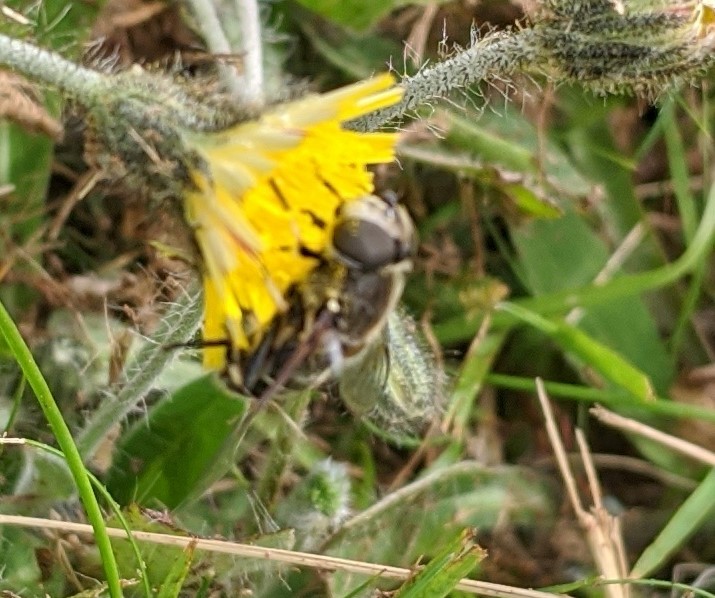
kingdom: Animalia
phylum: Arthropoda
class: Insecta
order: Diptera
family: Syrphidae
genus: Eristalis
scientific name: Eristalis dimidiata
